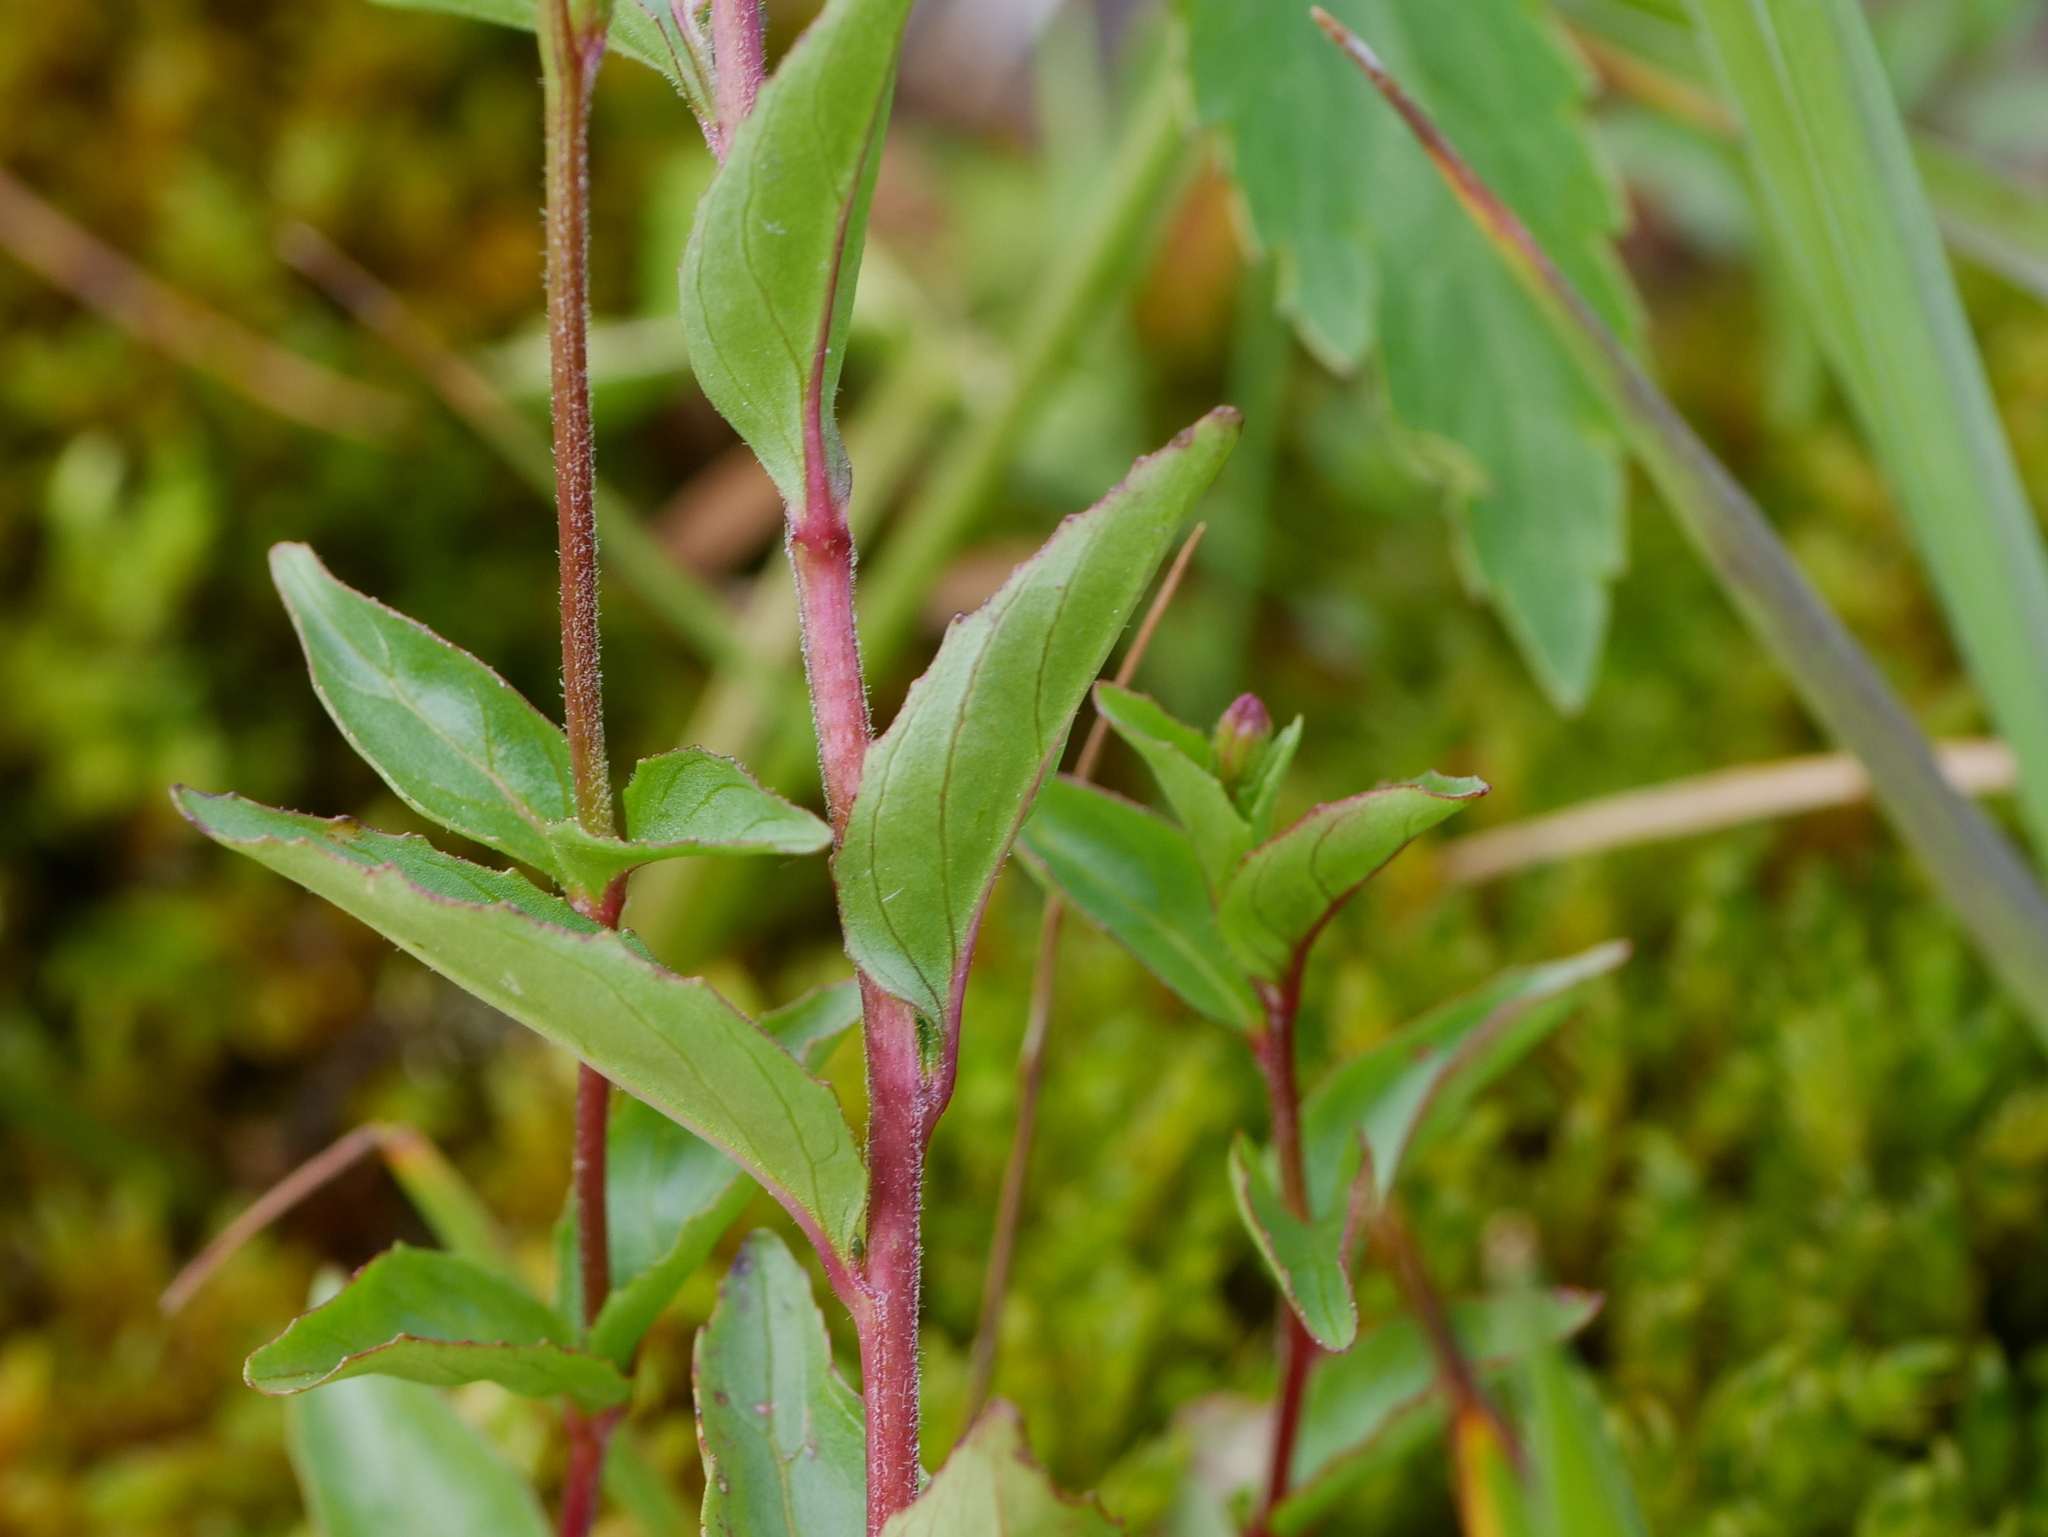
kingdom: Plantae
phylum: Tracheophyta
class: Magnoliopsida
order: Myrtales
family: Onagraceae
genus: Epilobium
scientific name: Epilobium alsinifolium
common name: Chickweed willowherb
